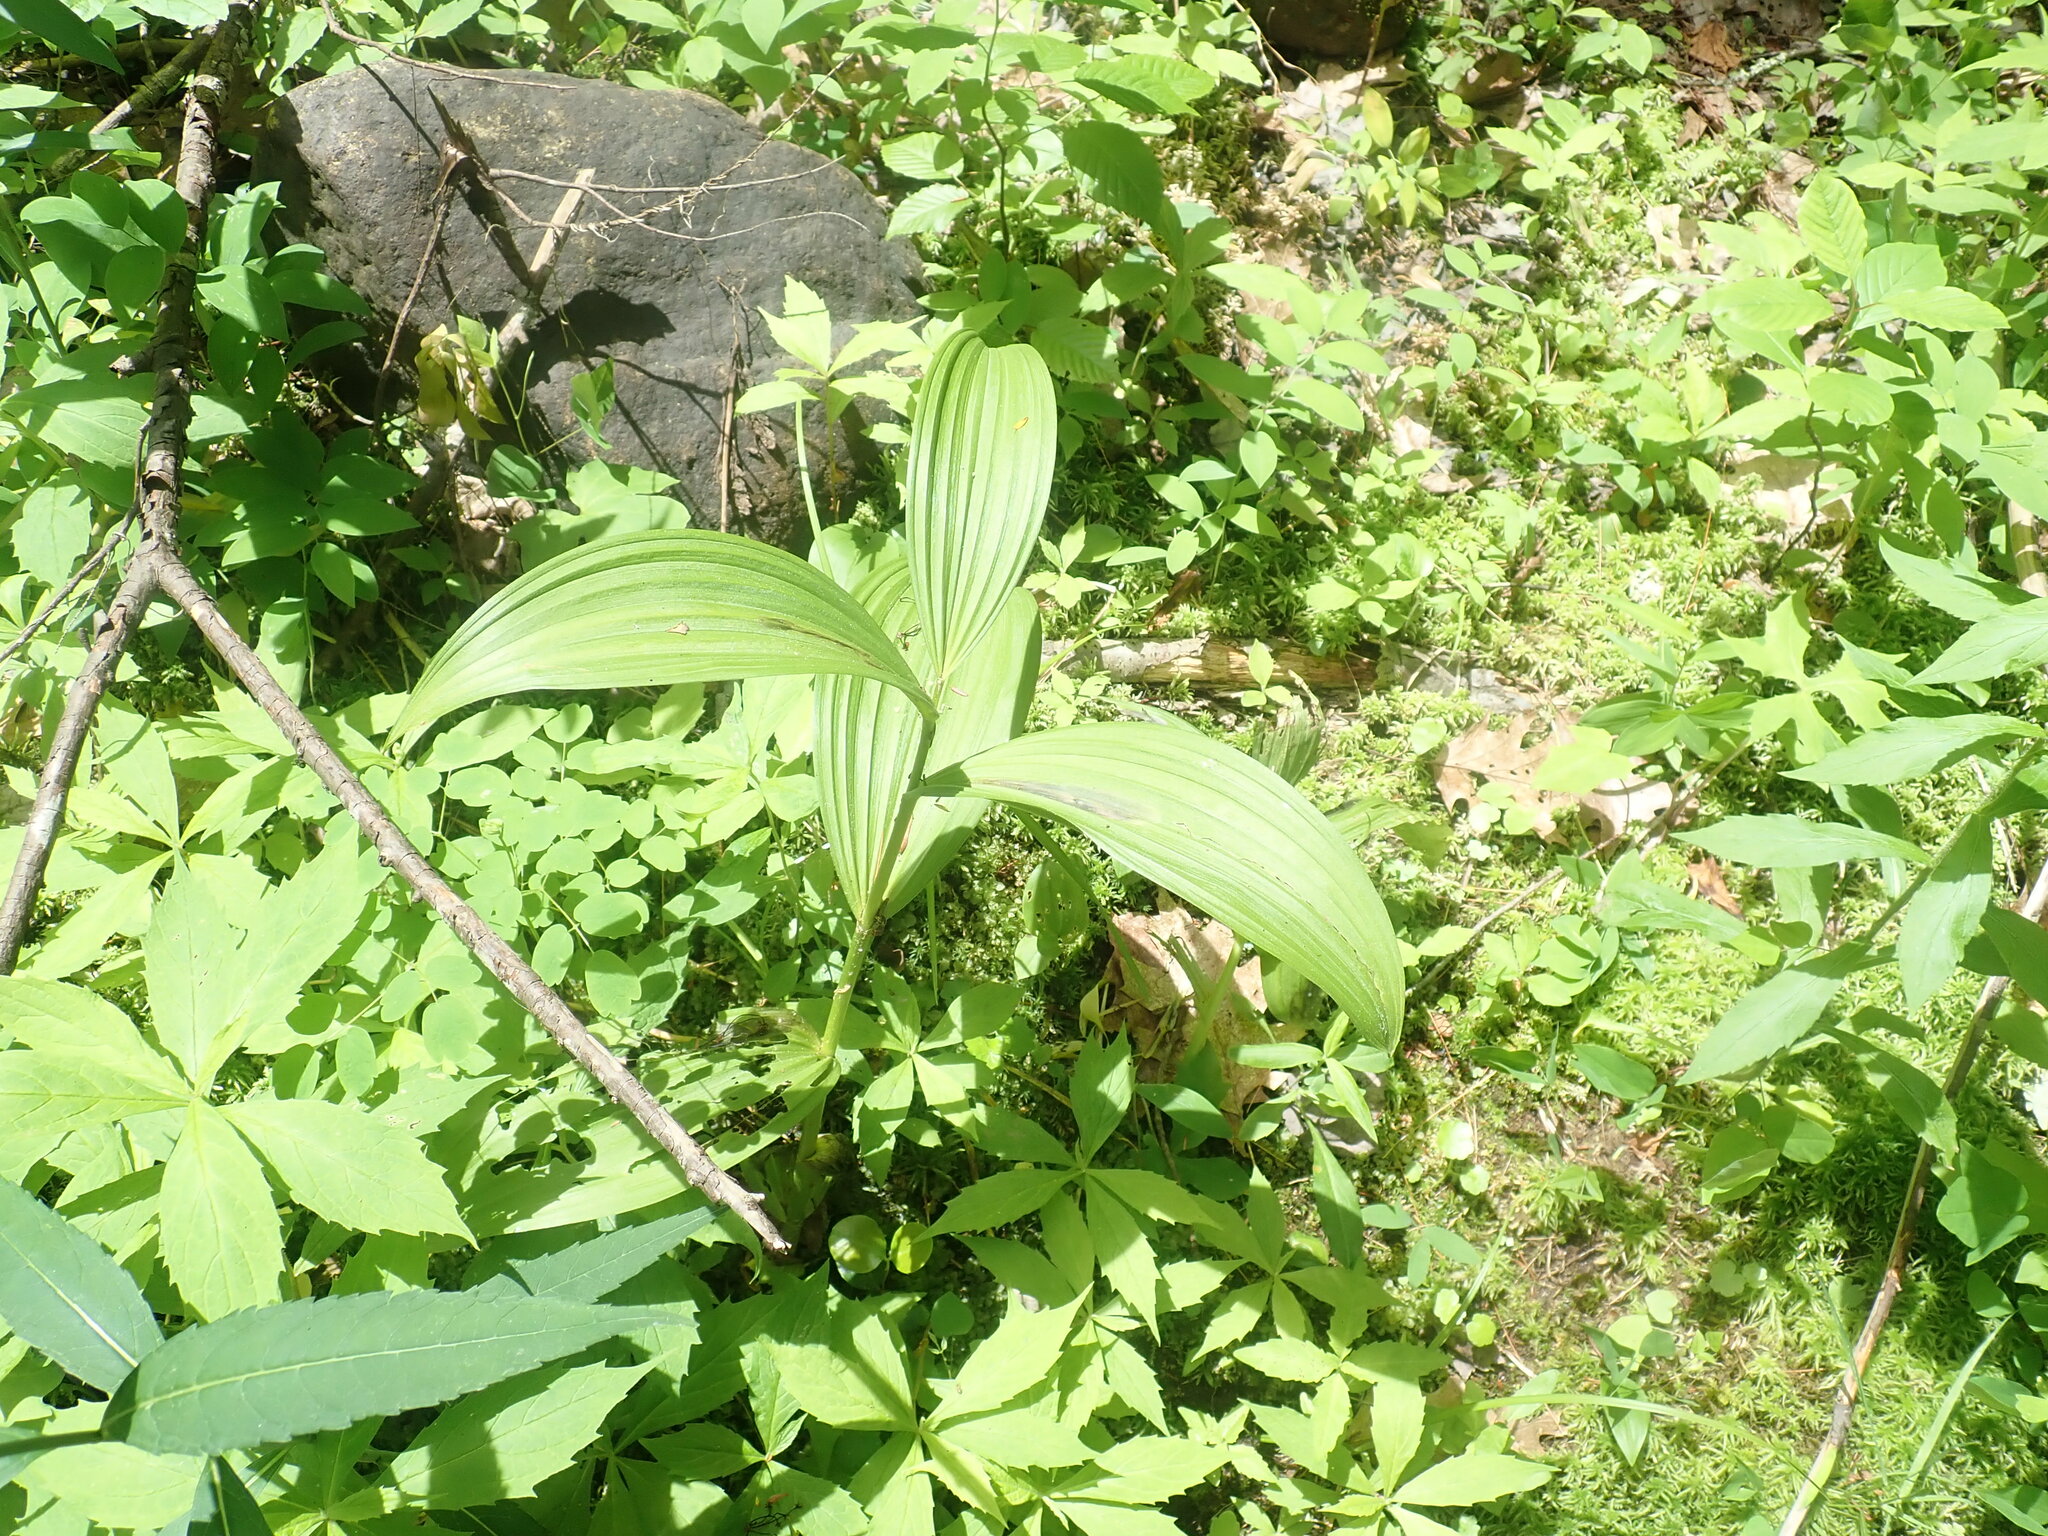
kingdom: Plantae
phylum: Tracheophyta
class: Liliopsida
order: Liliales
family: Melanthiaceae
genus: Veratrum
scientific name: Veratrum viride
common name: American false hellebore
